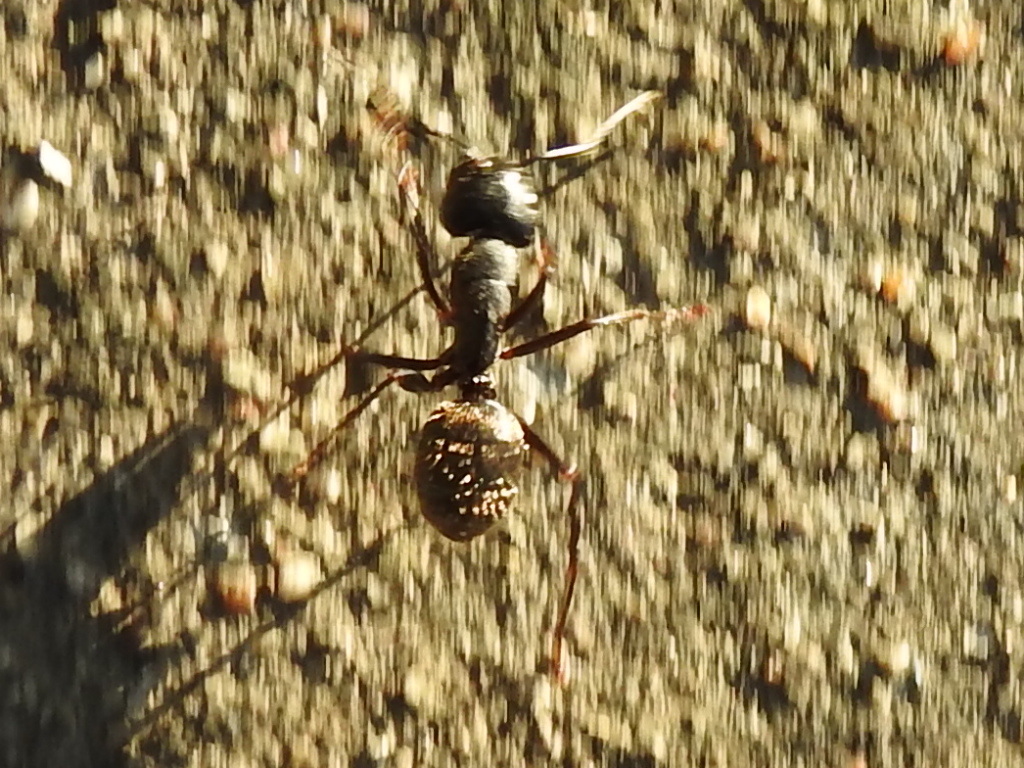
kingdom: Animalia
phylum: Arthropoda
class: Insecta
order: Hymenoptera
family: Formicidae
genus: Camponotus
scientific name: Camponotus pennsylvanicus
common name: Black carpenter ant
